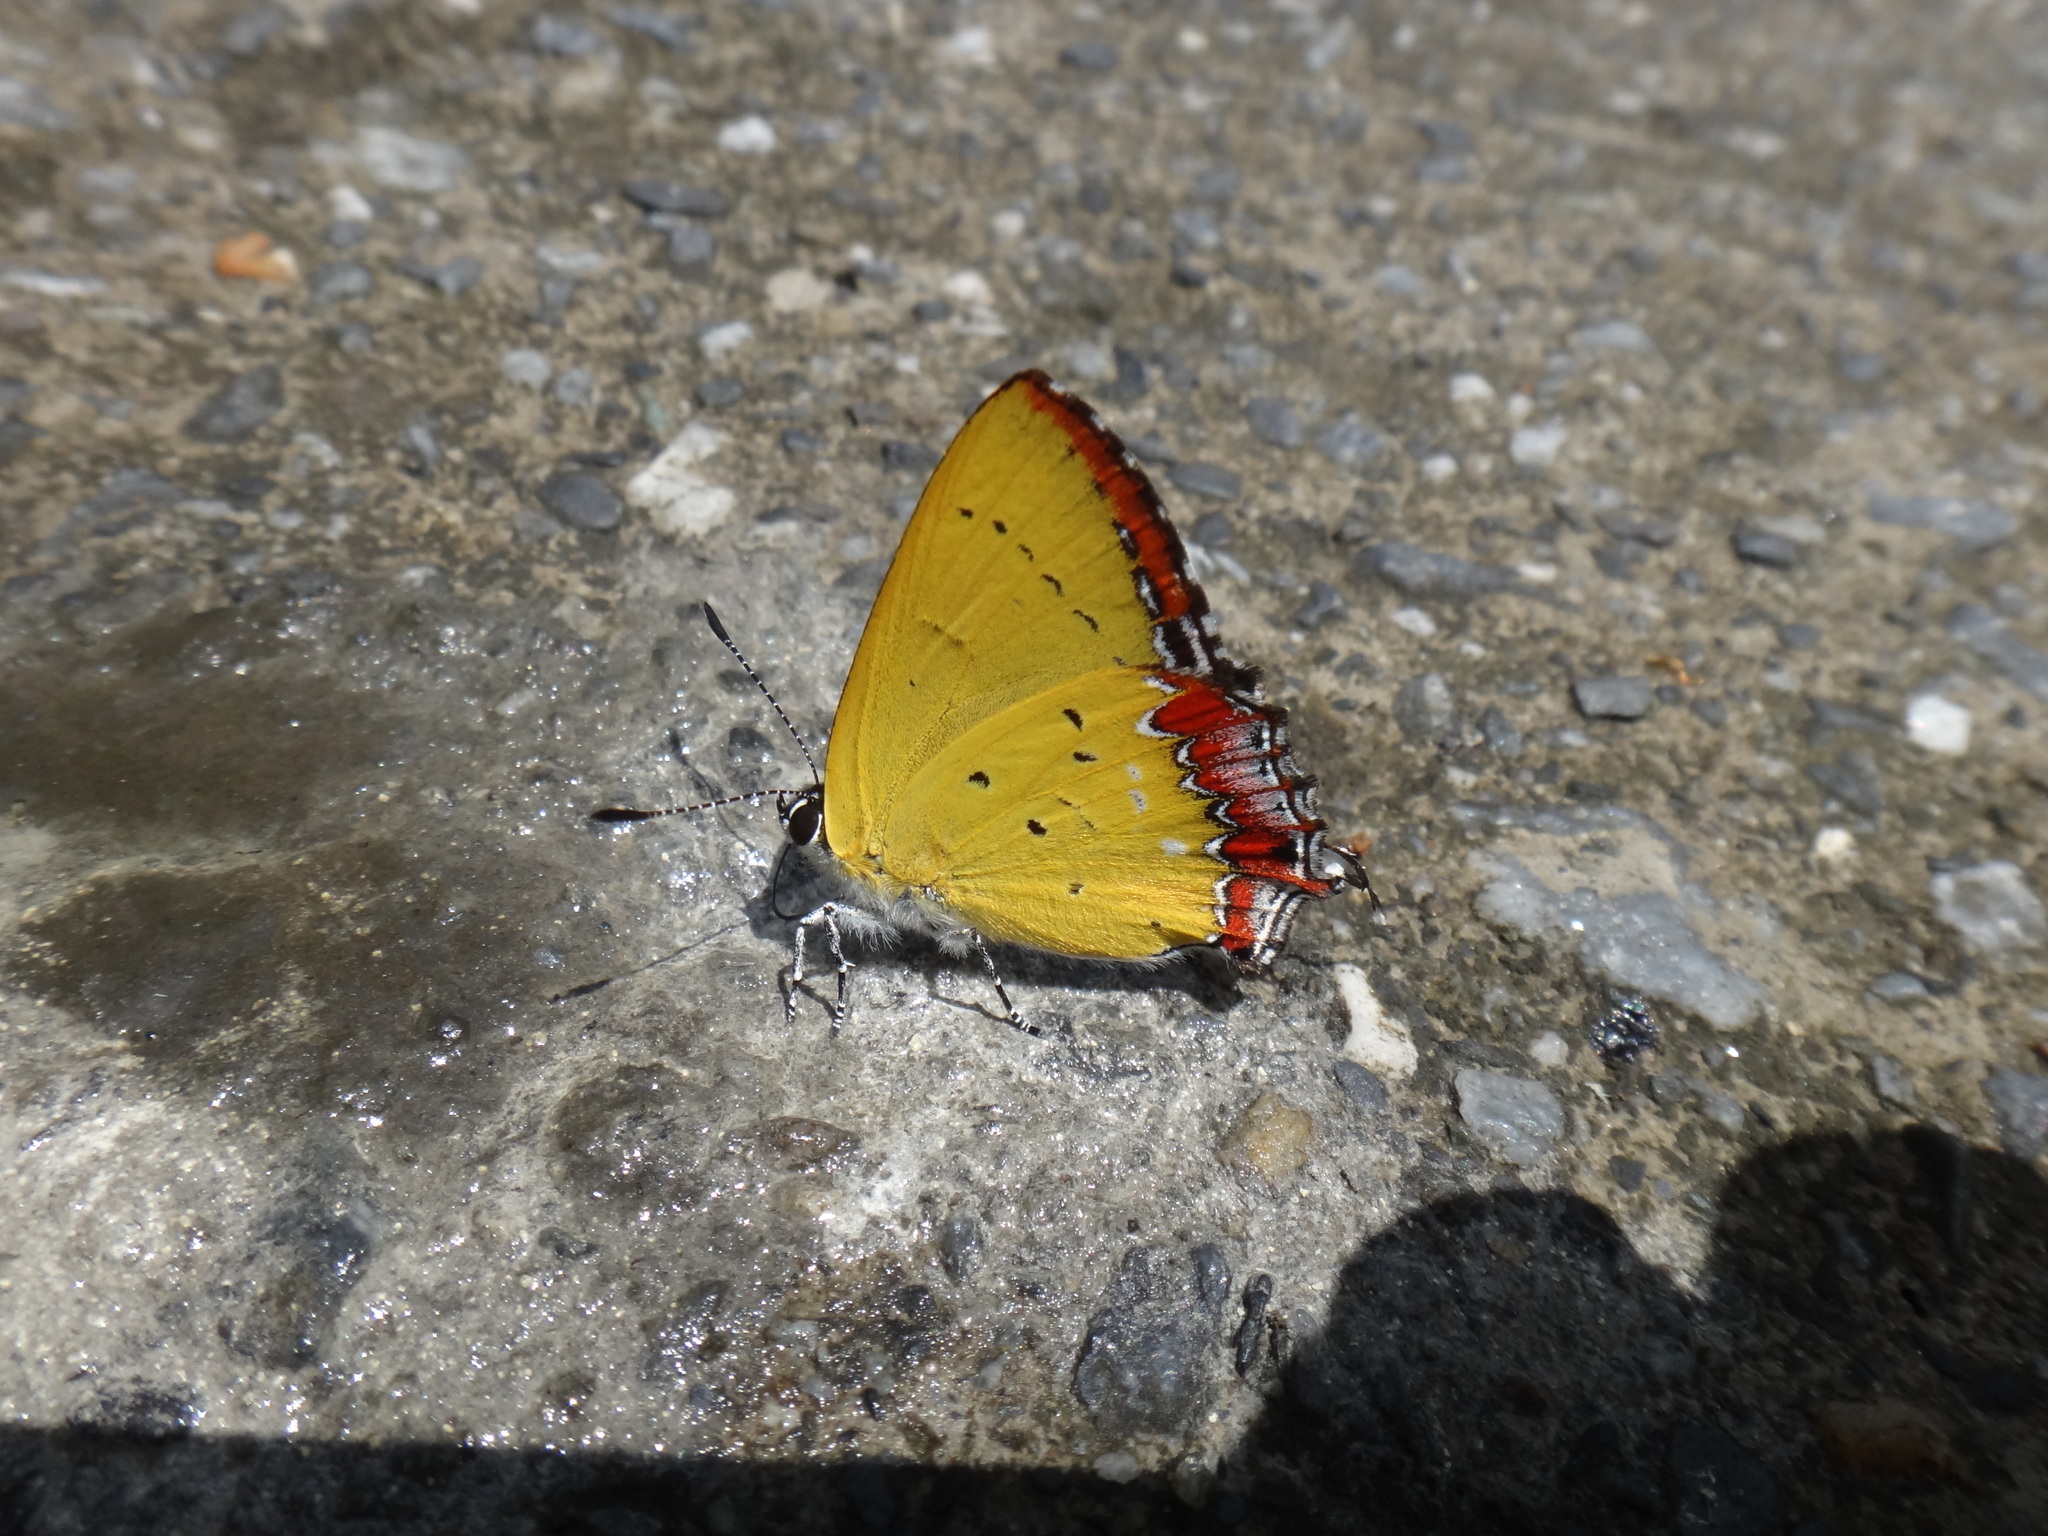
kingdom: Animalia
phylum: Arthropoda
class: Insecta
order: Lepidoptera
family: Lycaenidae
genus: Heliophorus
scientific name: Heliophorus ila
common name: Restricted purple sapphire
